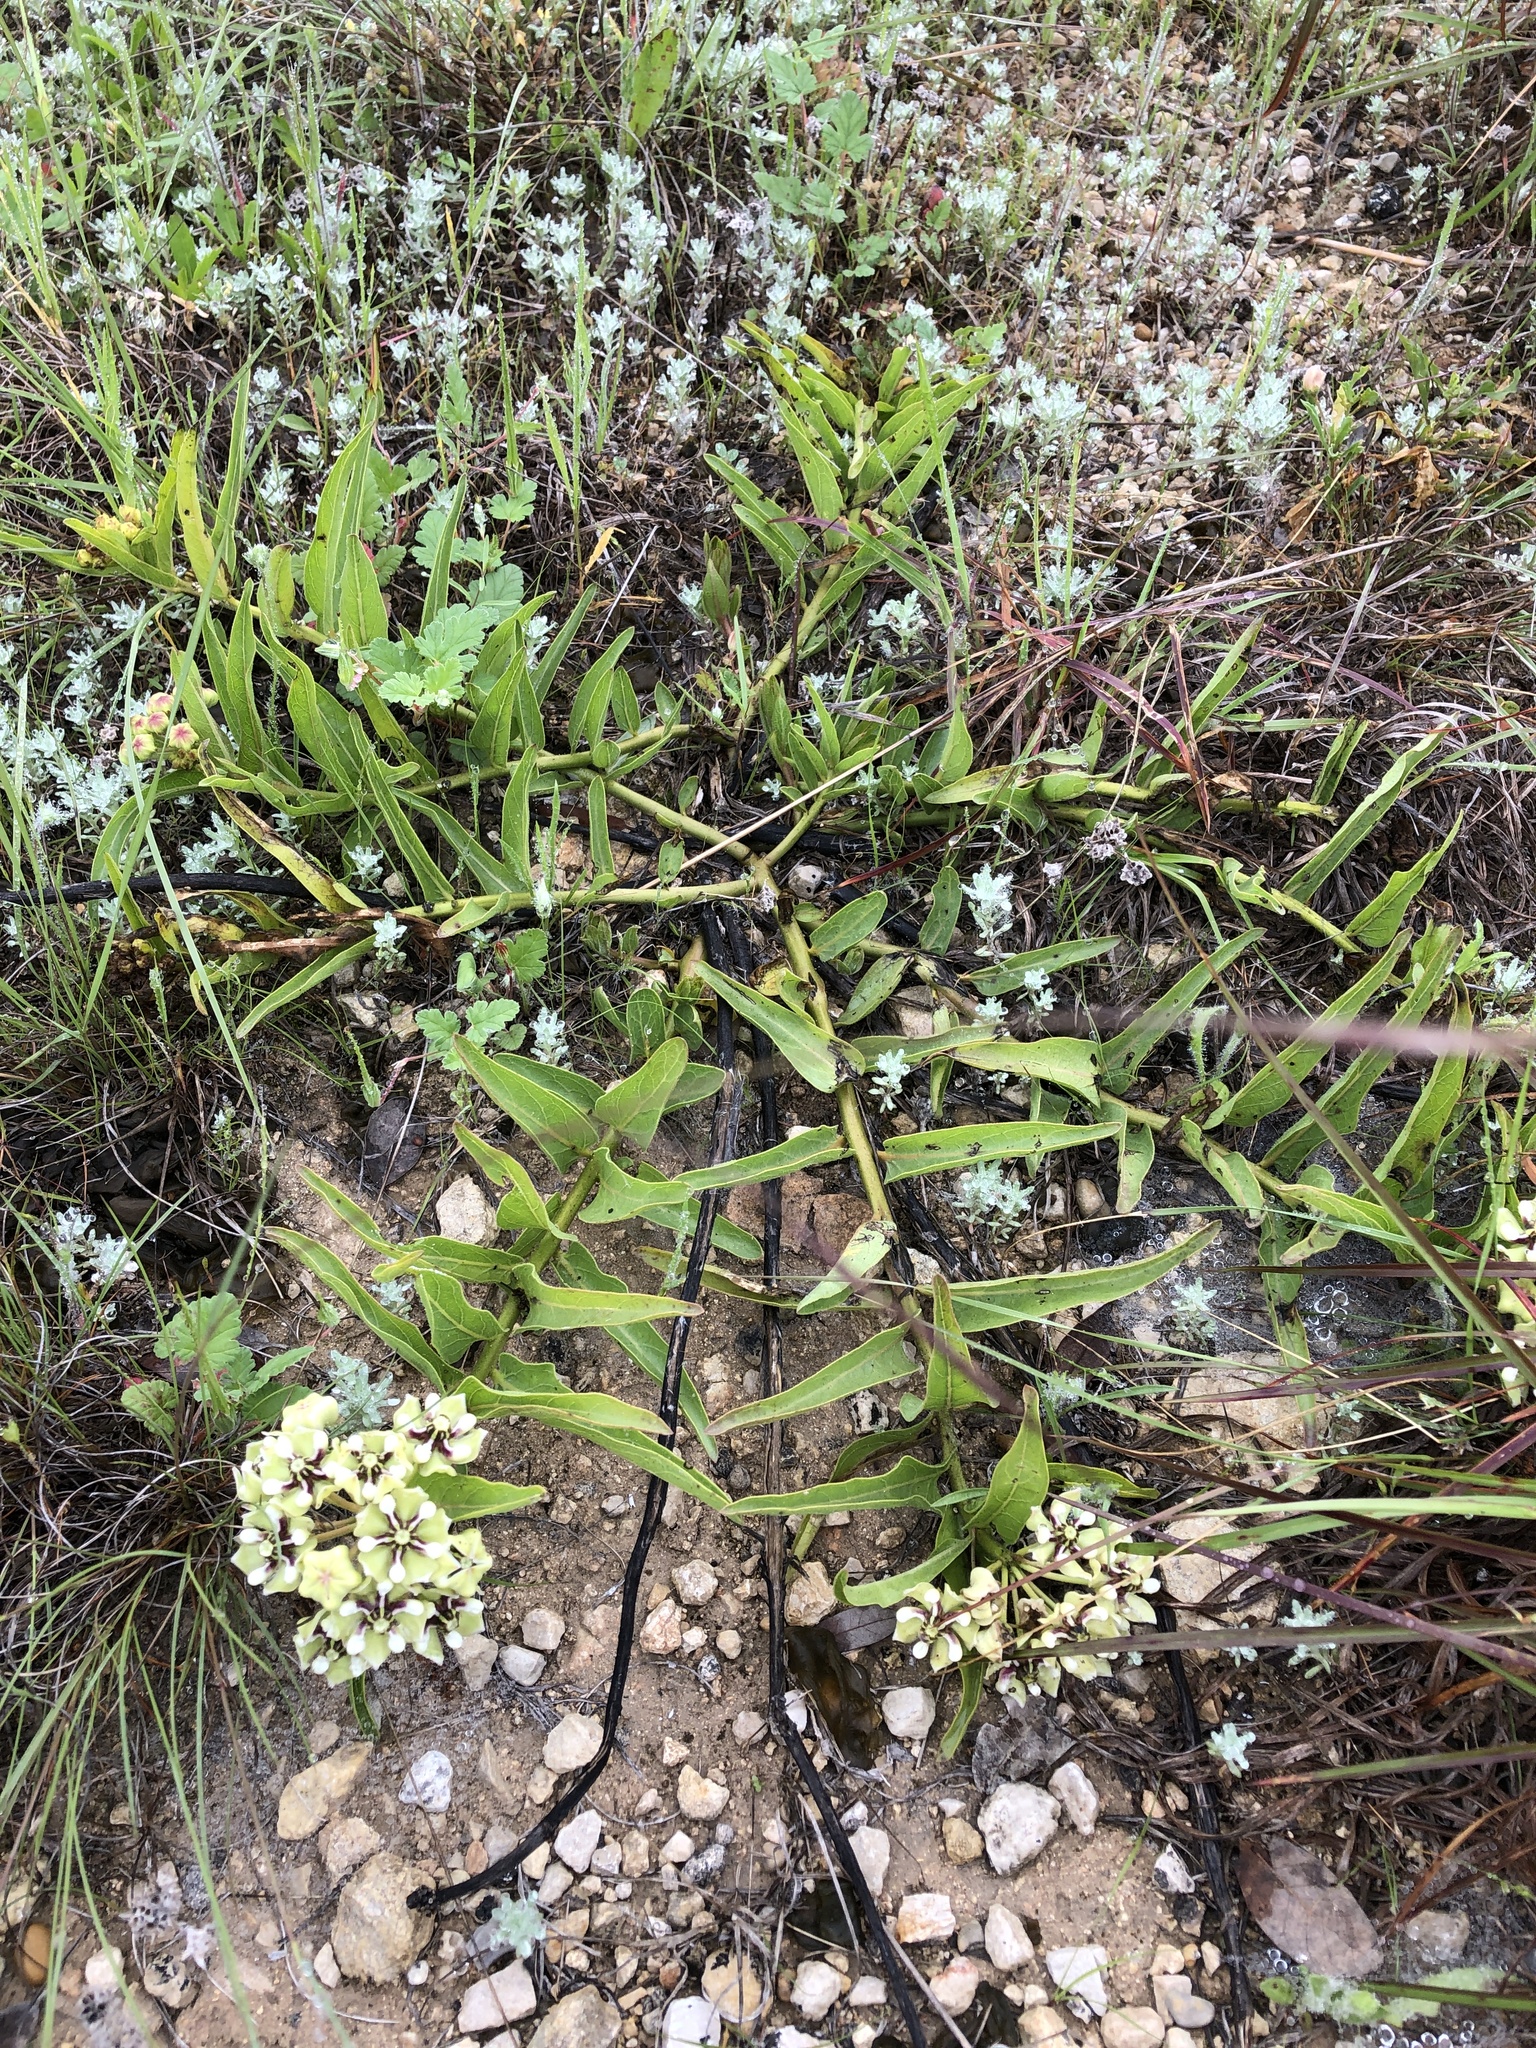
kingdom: Plantae
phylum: Tracheophyta
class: Magnoliopsida
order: Gentianales
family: Apocynaceae
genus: Asclepias
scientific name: Asclepias asperula
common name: Antelope horns
